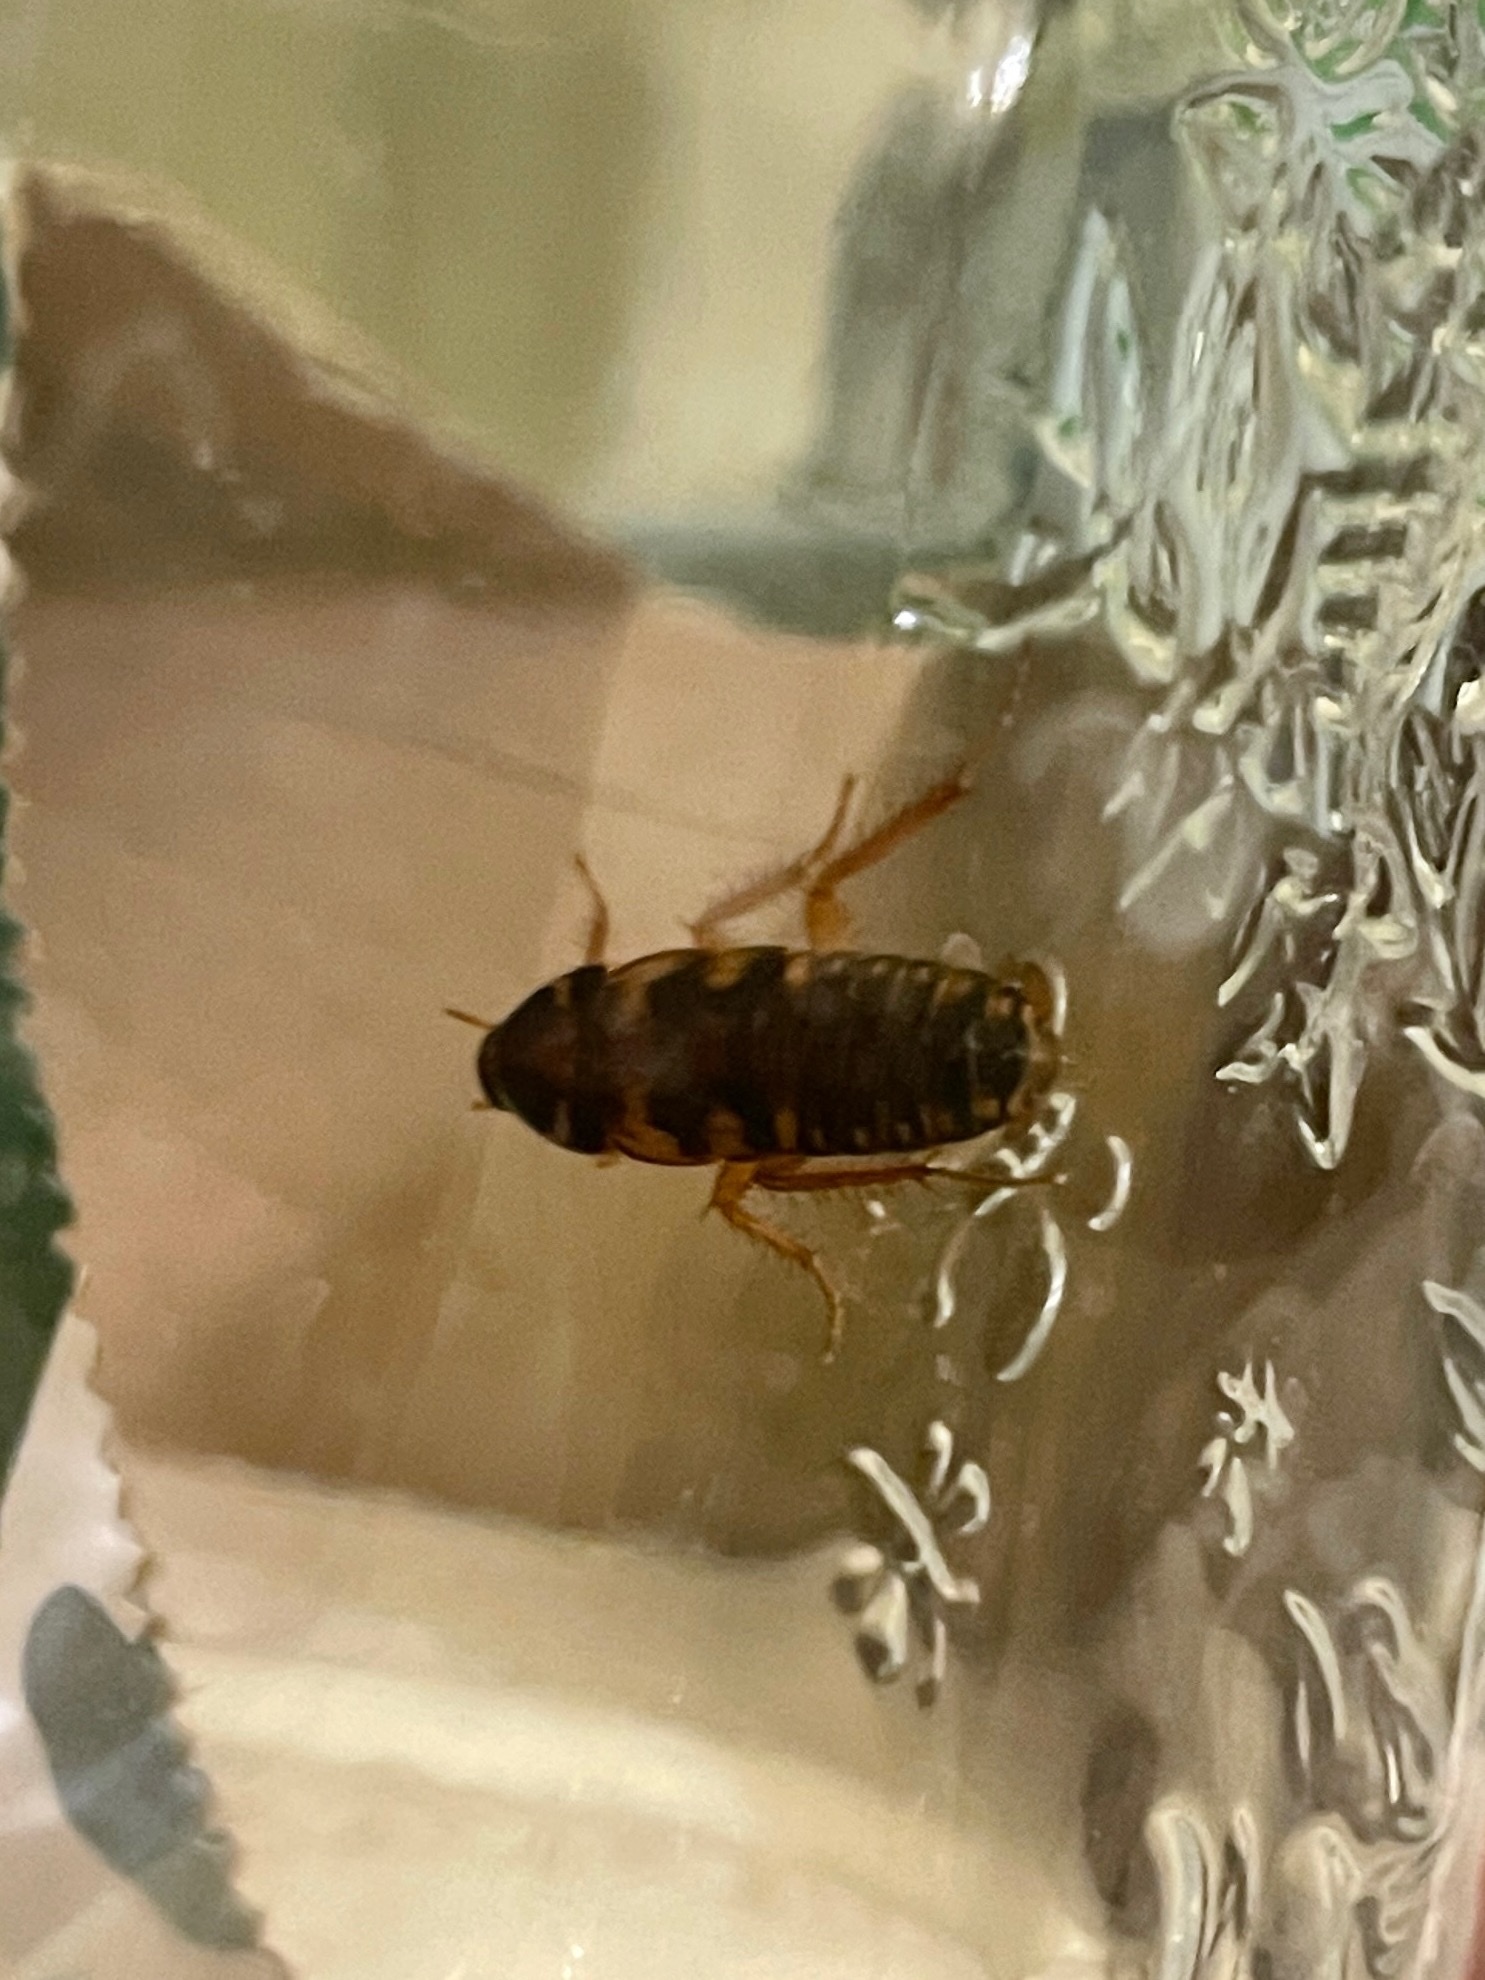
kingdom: Animalia
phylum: Arthropoda
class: Insecta
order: Blattodea
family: Blattidae
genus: Periplaneta
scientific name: Periplaneta australasiae
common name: Australian cockroach
